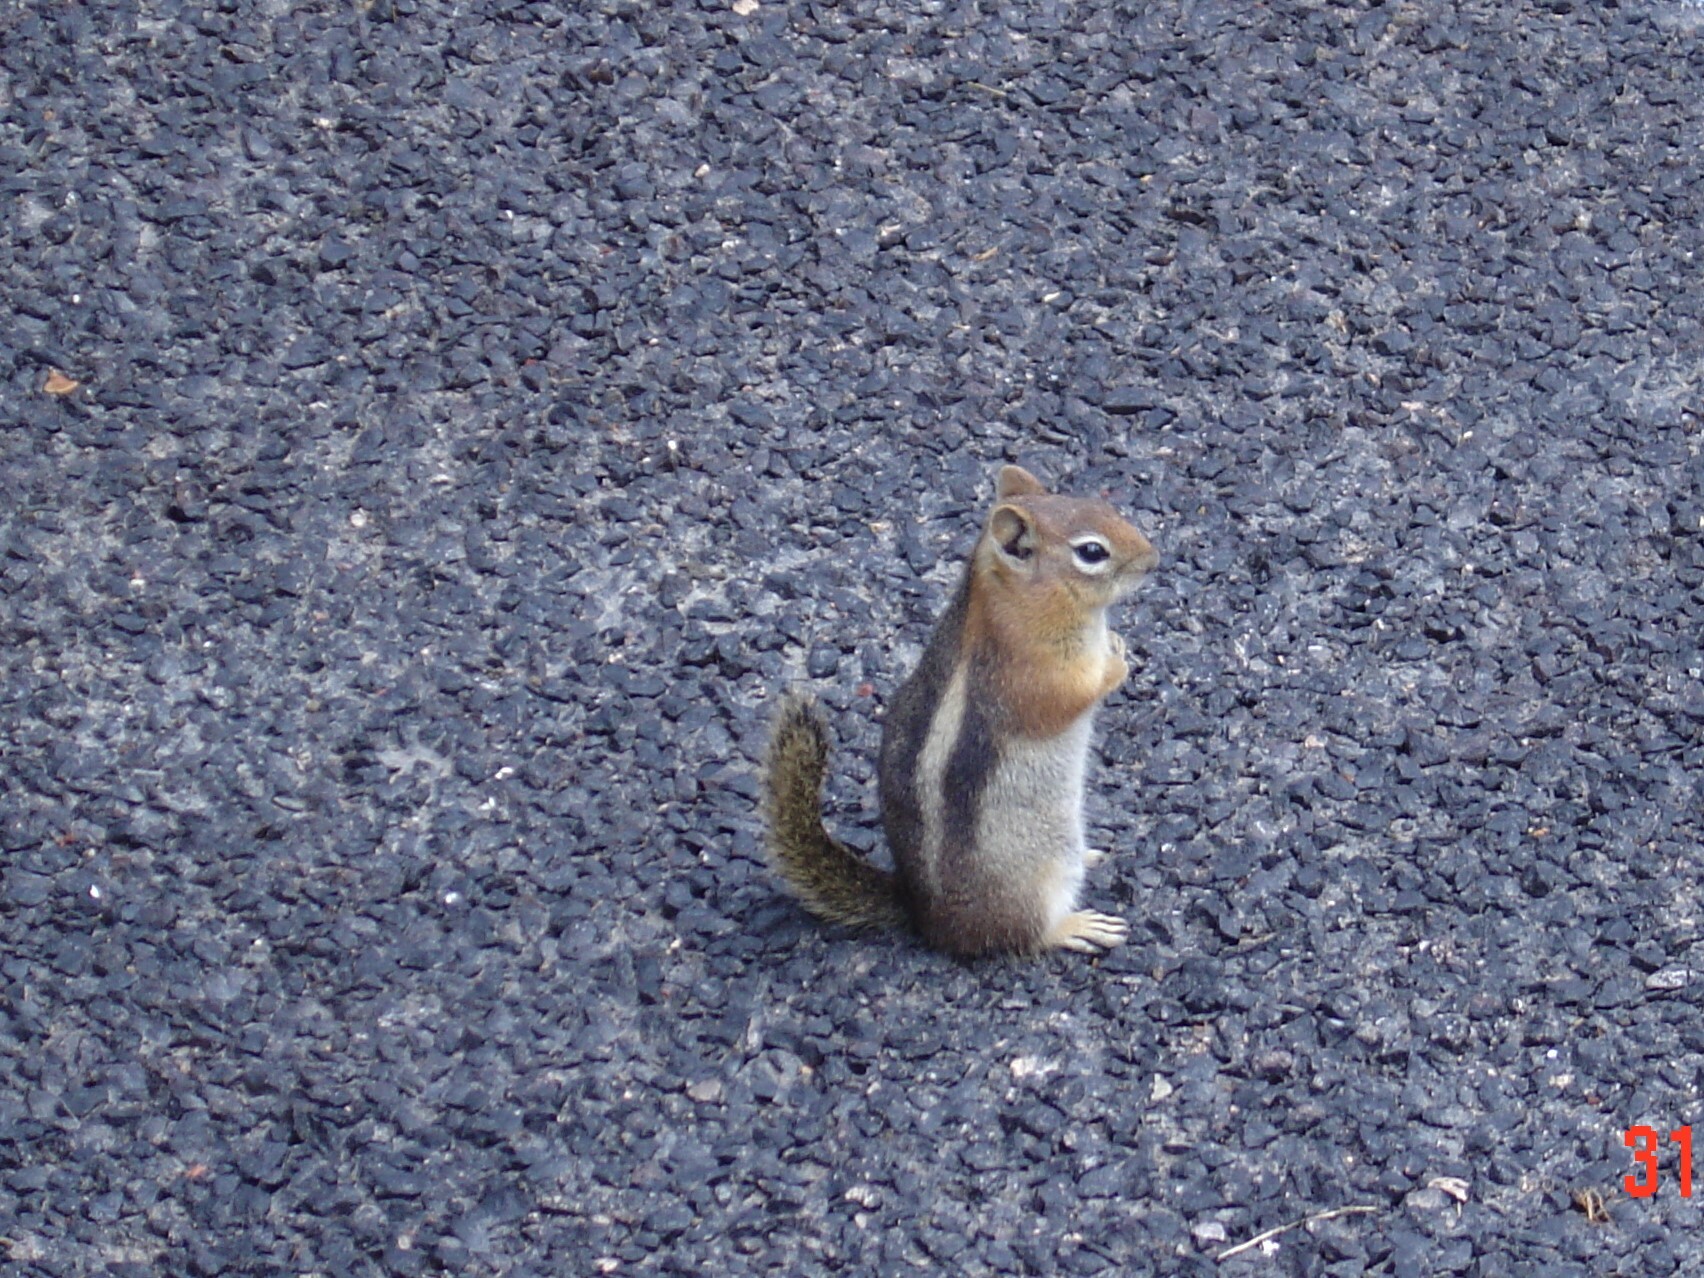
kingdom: Animalia
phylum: Chordata
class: Mammalia
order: Rodentia
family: Sciuridae
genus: Callospermophilus
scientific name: Callospermophilus lateralis
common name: Golden-mantled ground squirrel
